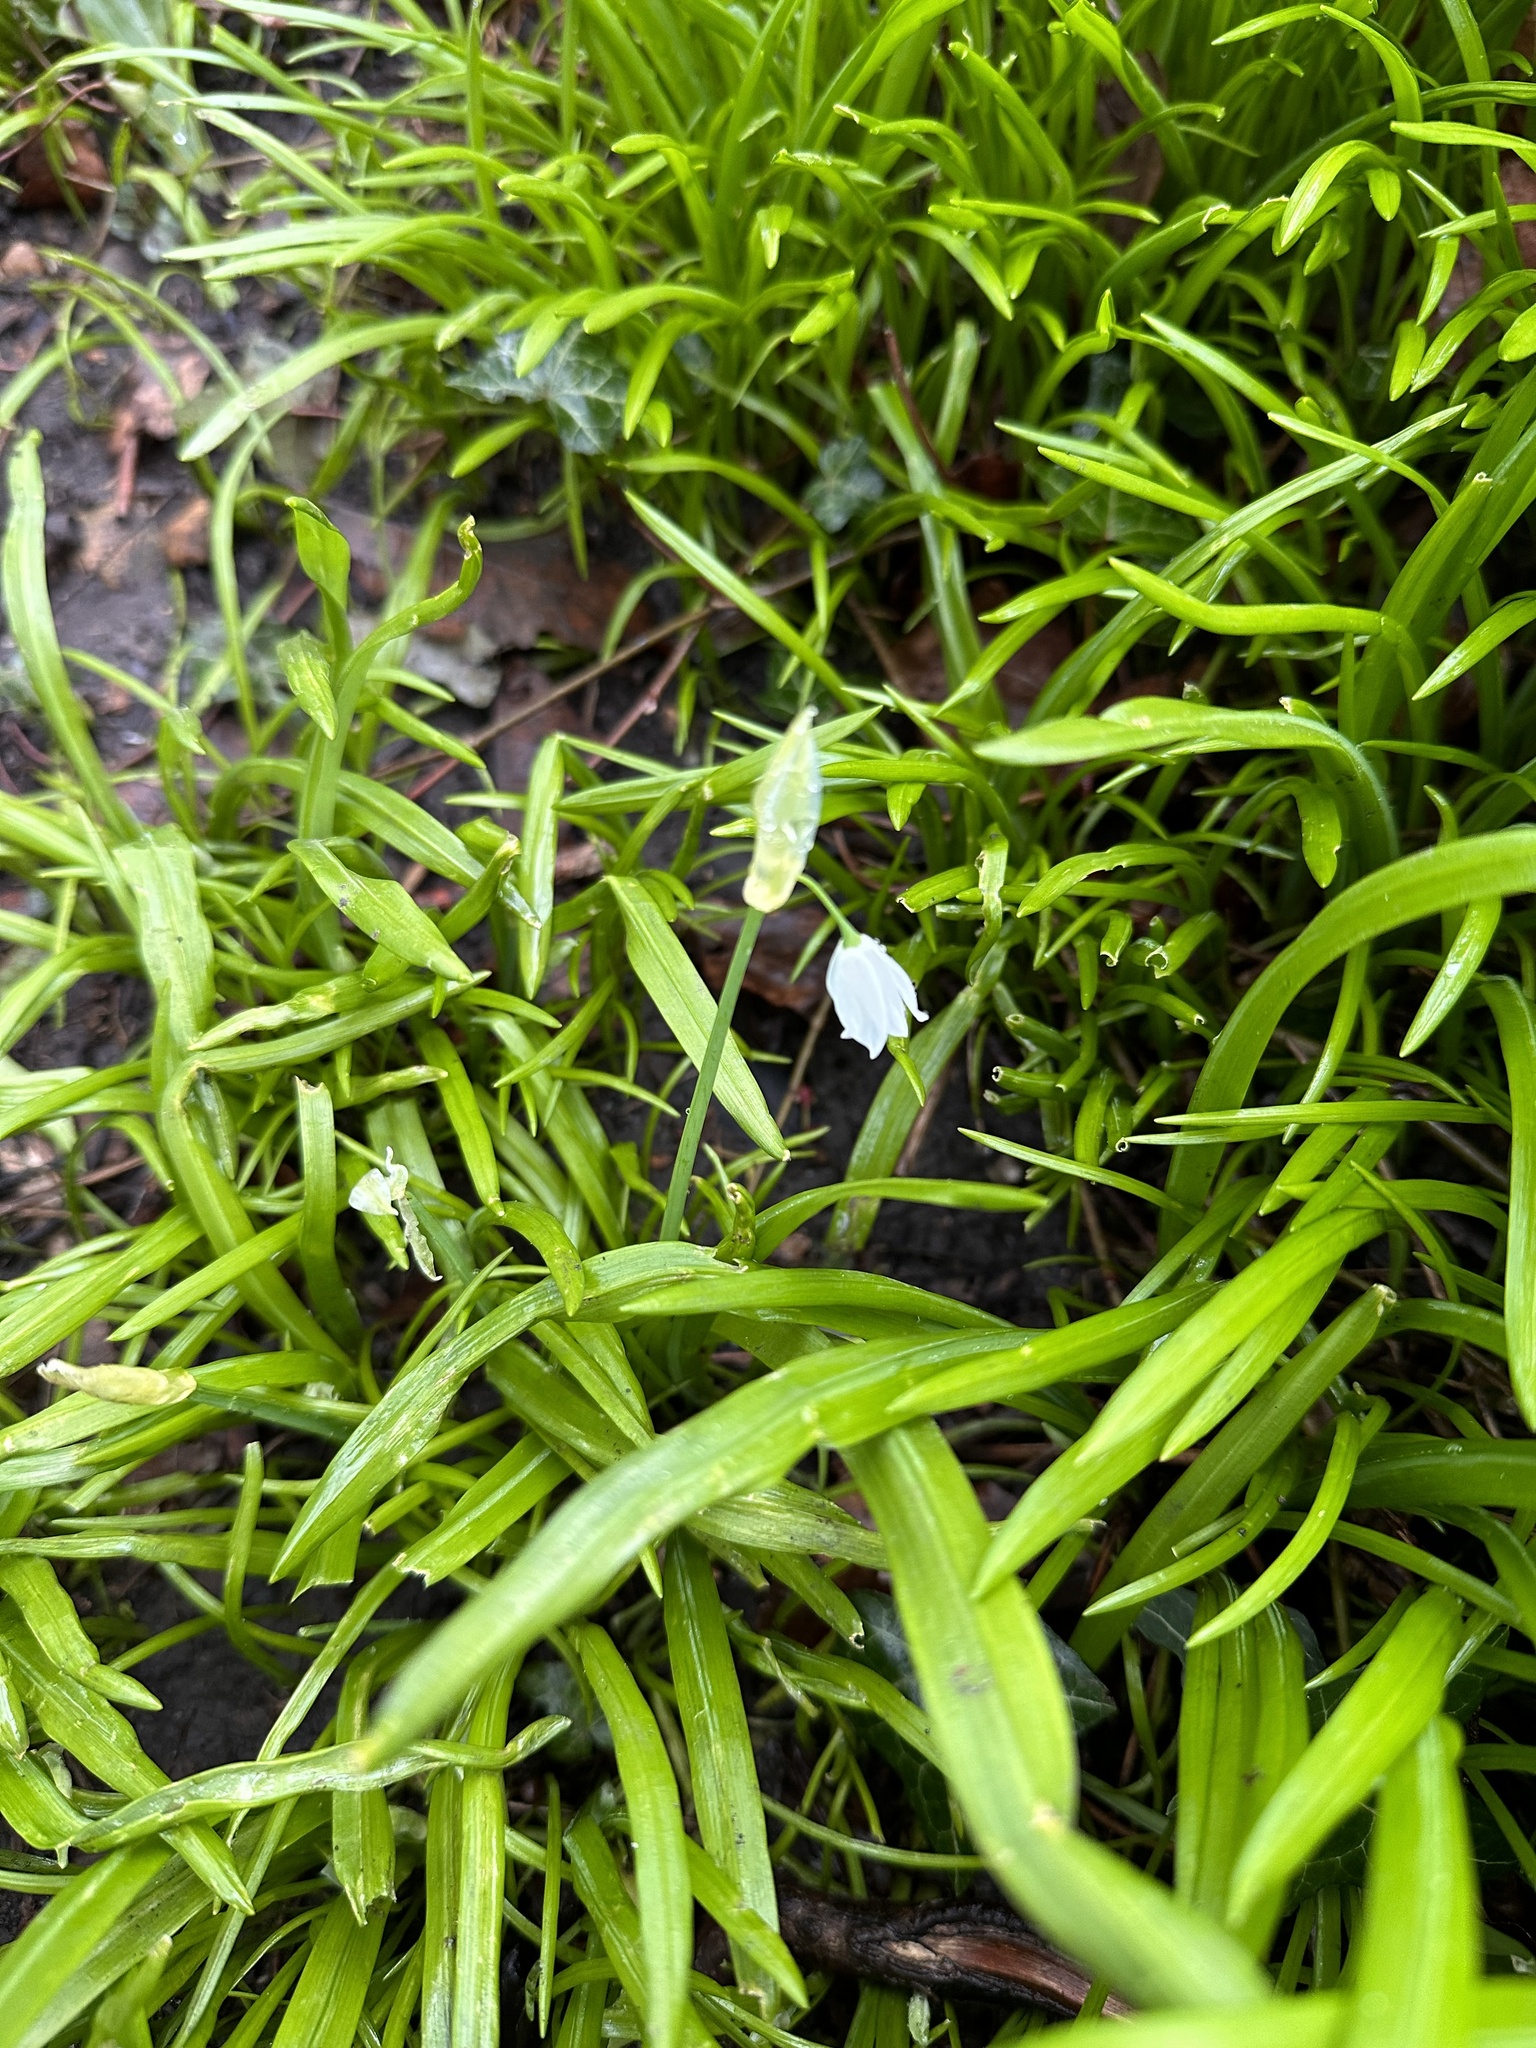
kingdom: Plantae
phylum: Tracheophyta
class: Liliopsida
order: Asparagales
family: Amaryllidaceae
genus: Allium
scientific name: Allium paradoxum
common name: Few-flowered garlic
